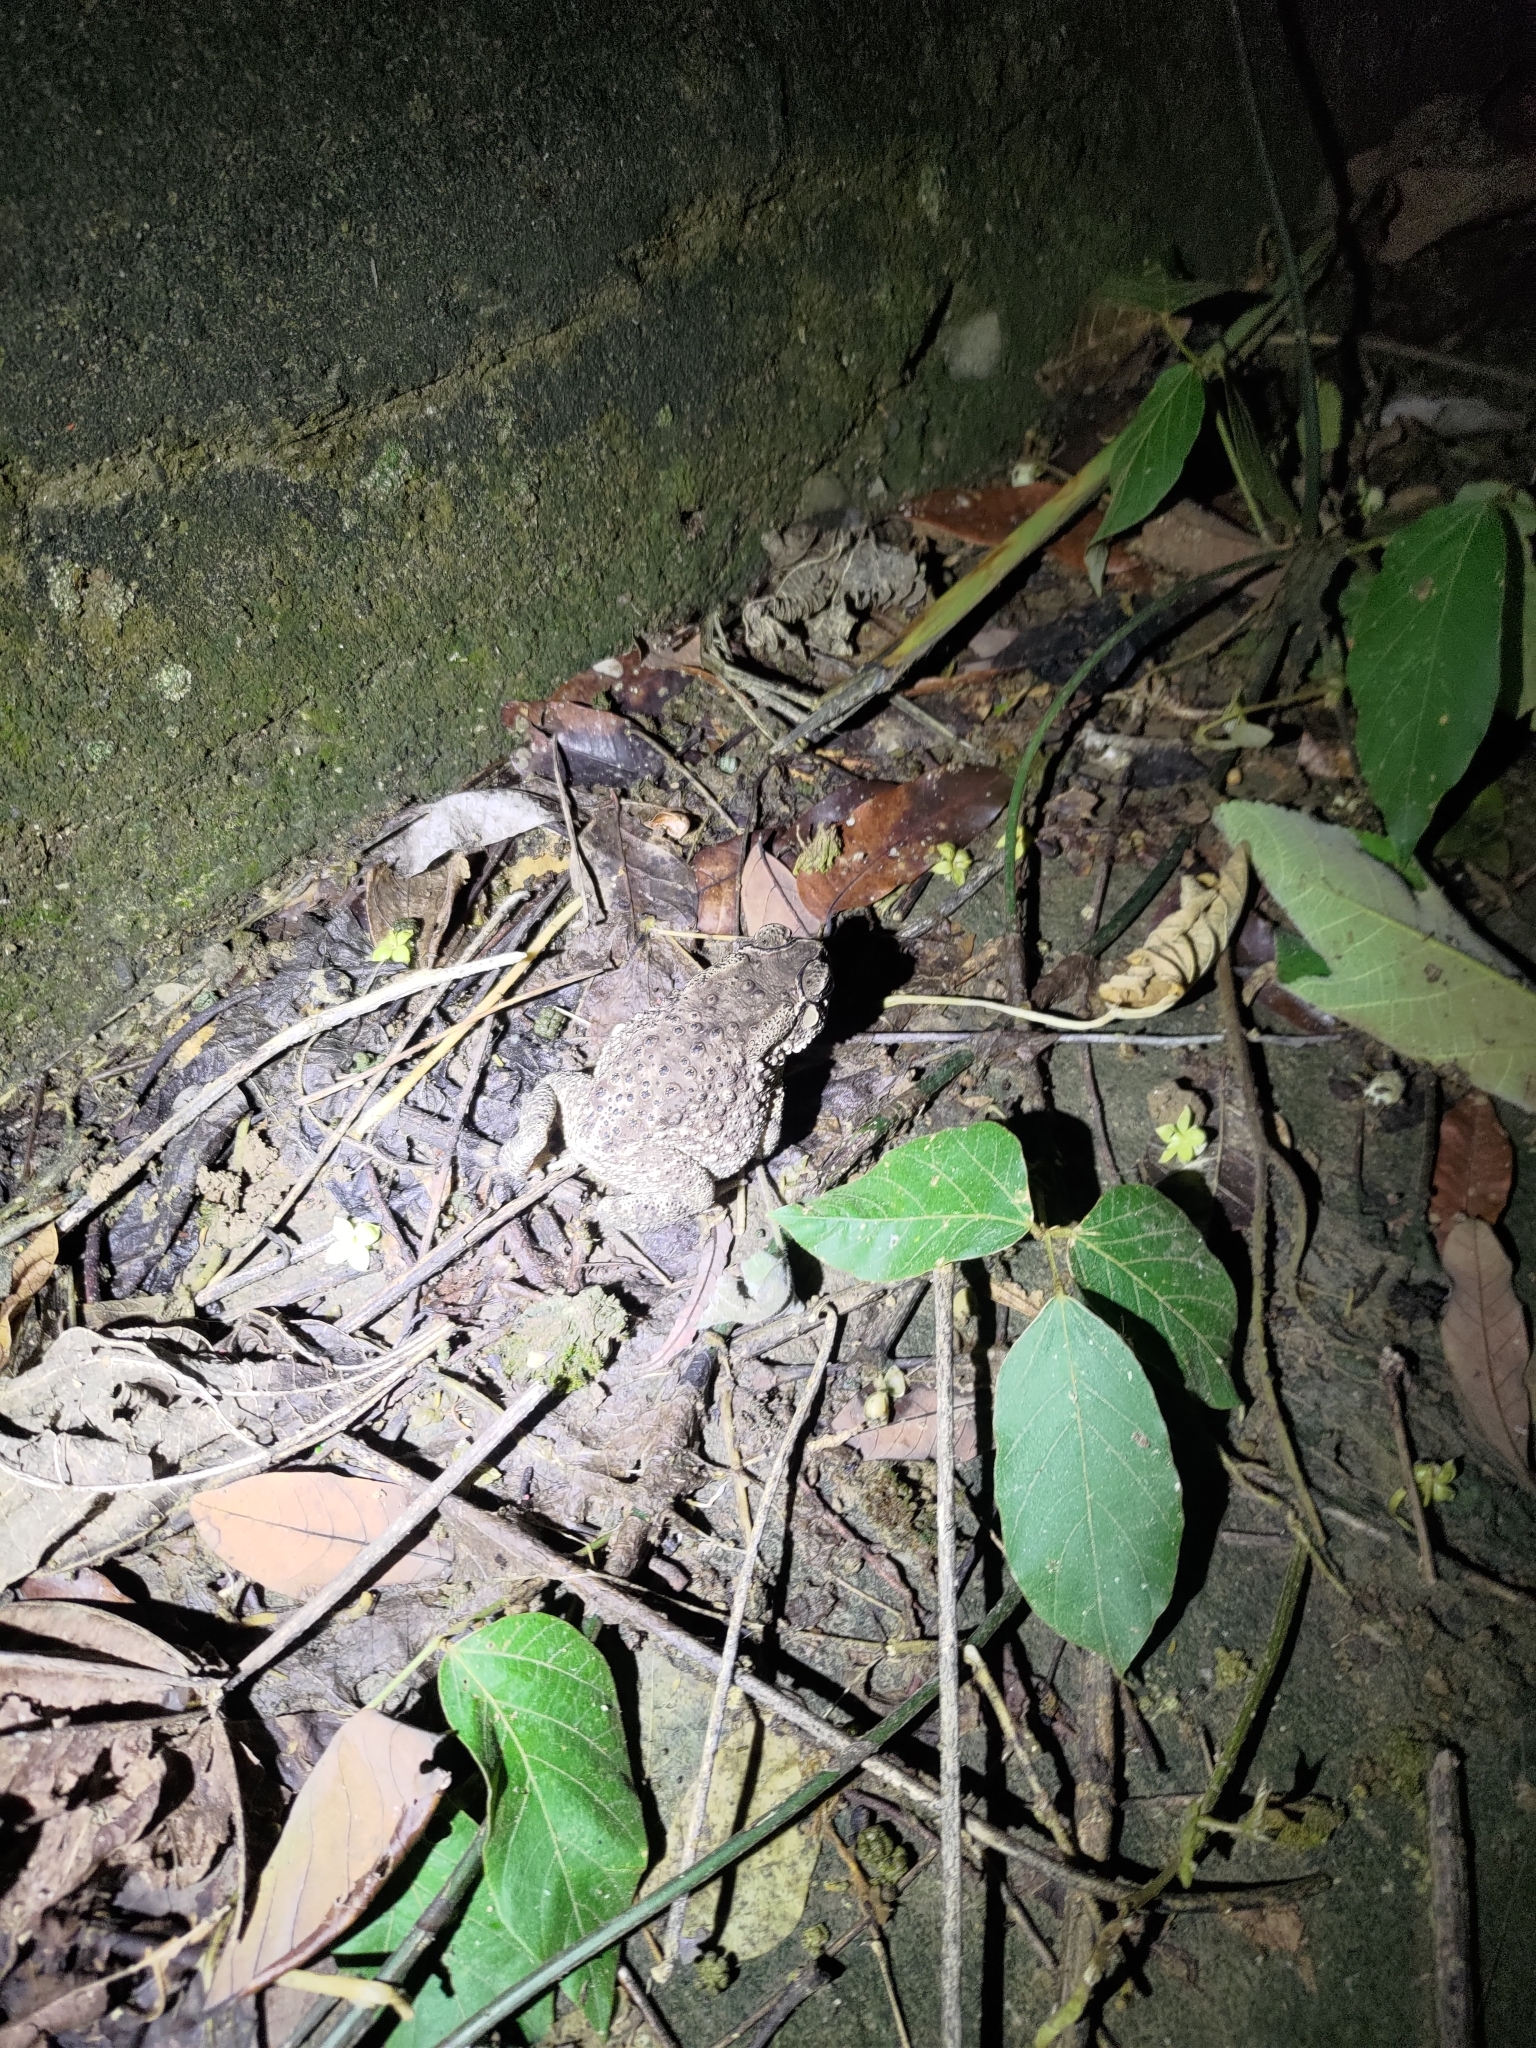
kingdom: Animalia
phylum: Chordata
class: Amphibia
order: Anura
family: Bufonidae
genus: Duttaphrynus
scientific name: Duttaphrynus melanostictus
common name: Common sunda toad
